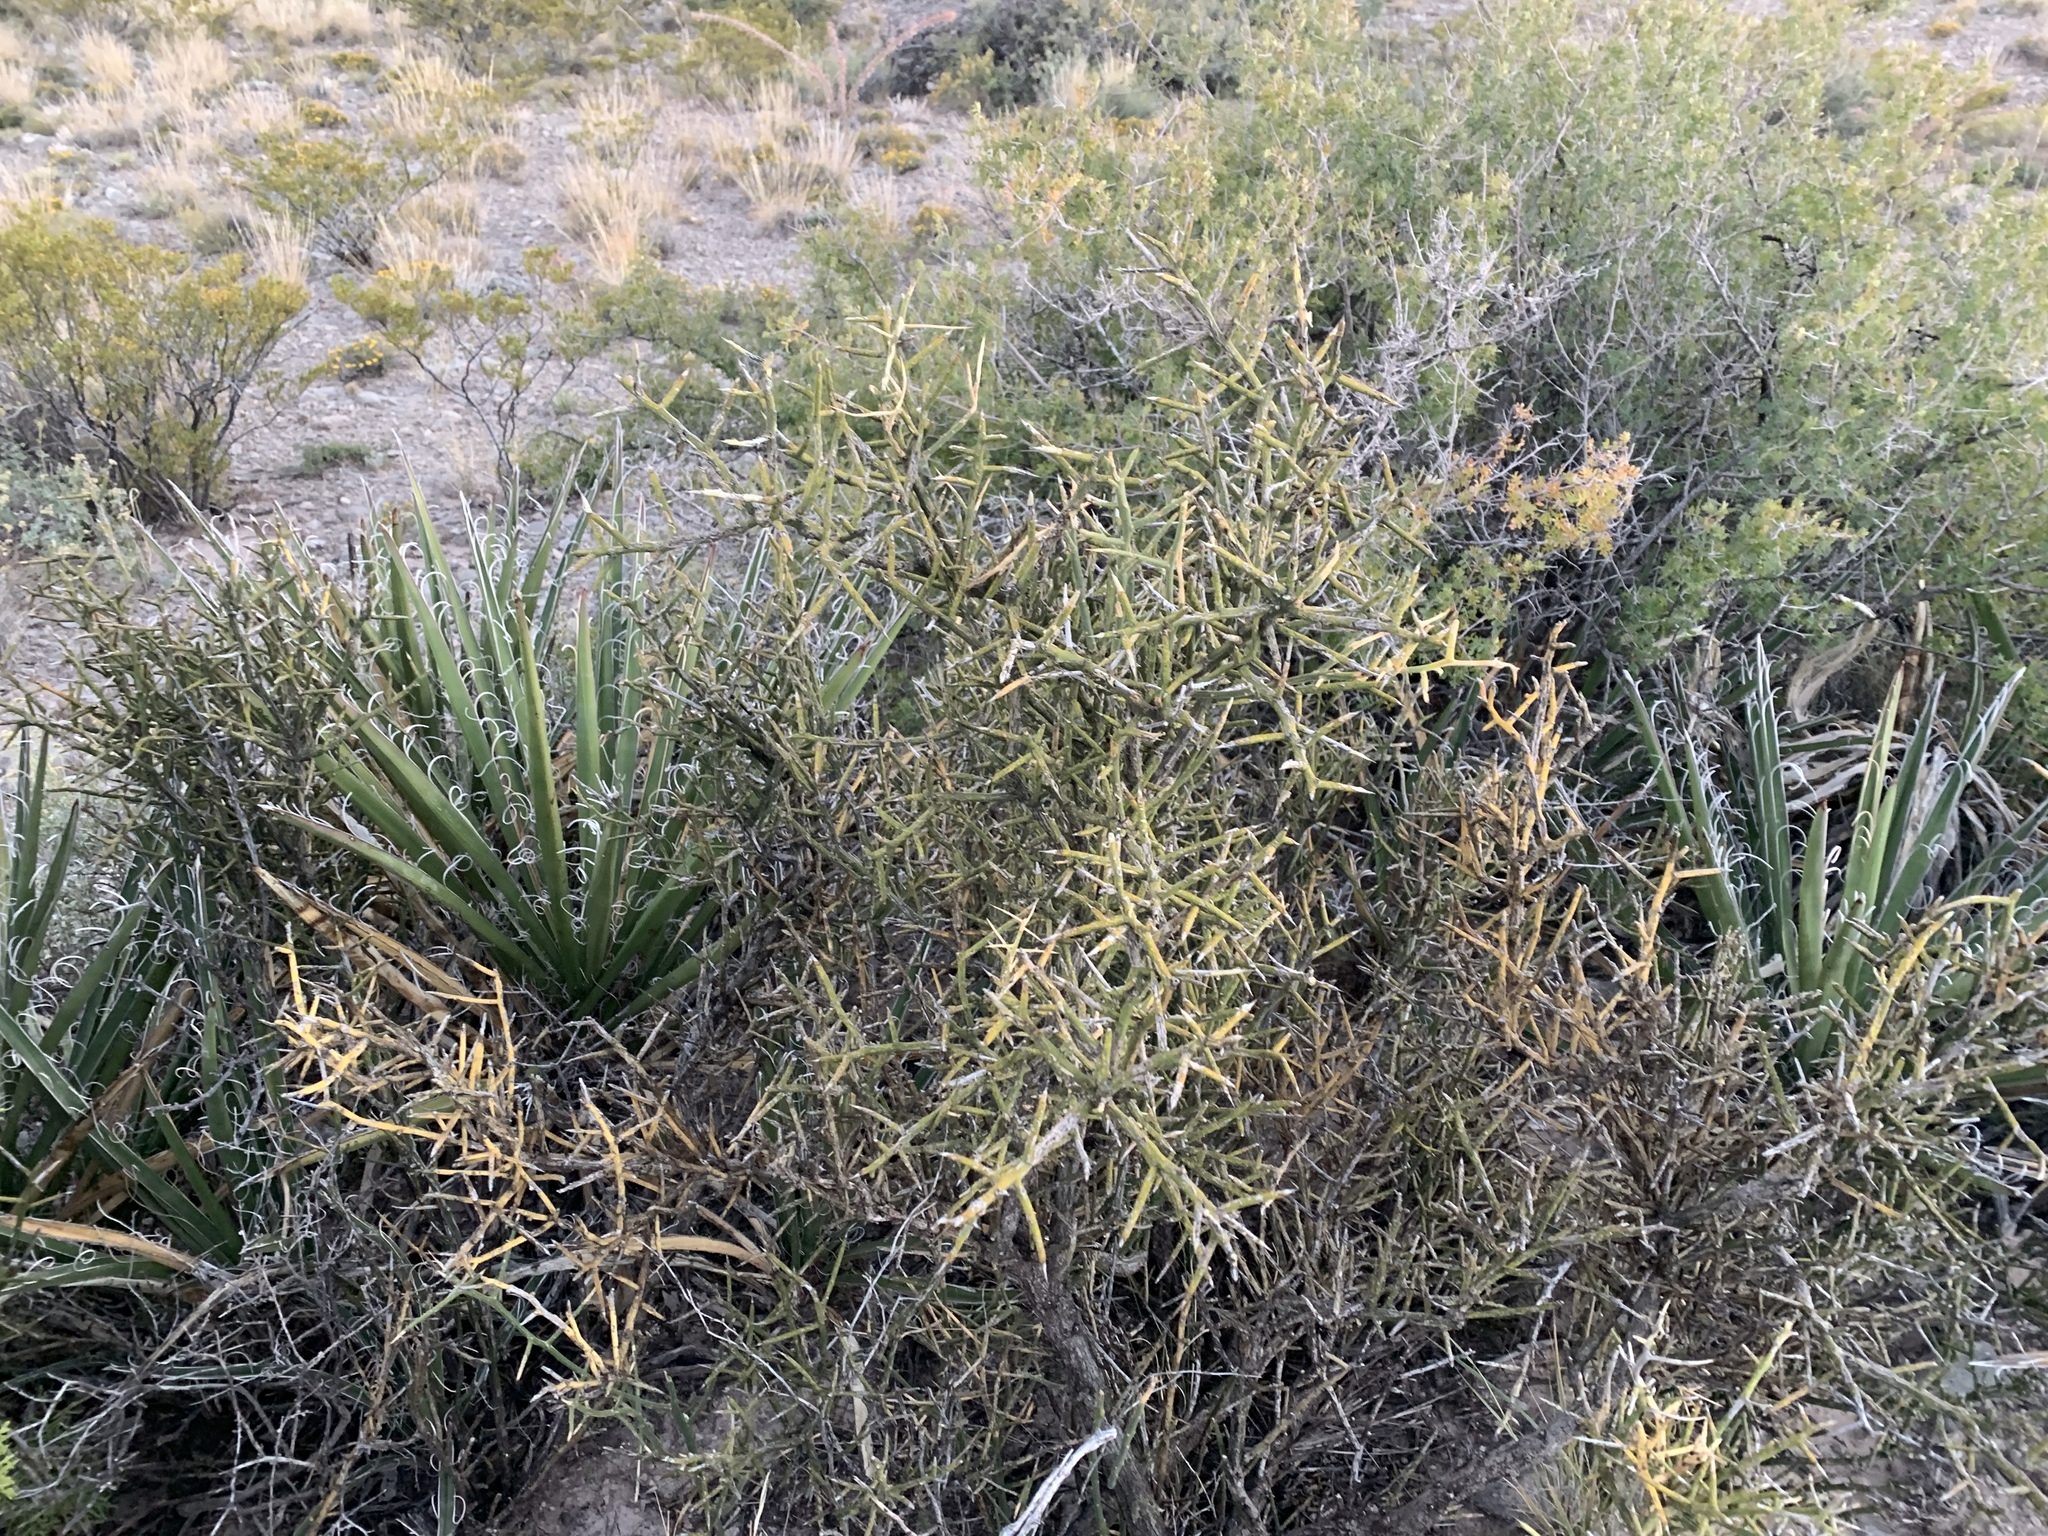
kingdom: Plantae
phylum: Tracheophyta
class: Magnoliopsida
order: Brassicales
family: Koeberliniaceae
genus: Koeberlinia
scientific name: Koeberlinia spinosa
